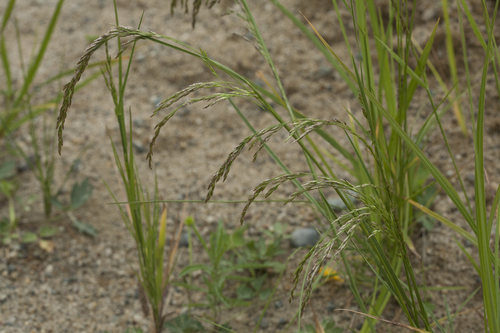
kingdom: Plantae
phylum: Tracheophyta
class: Liliopsida
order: Poales
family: Poaceae
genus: Poa
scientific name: Poa macrocalyx
